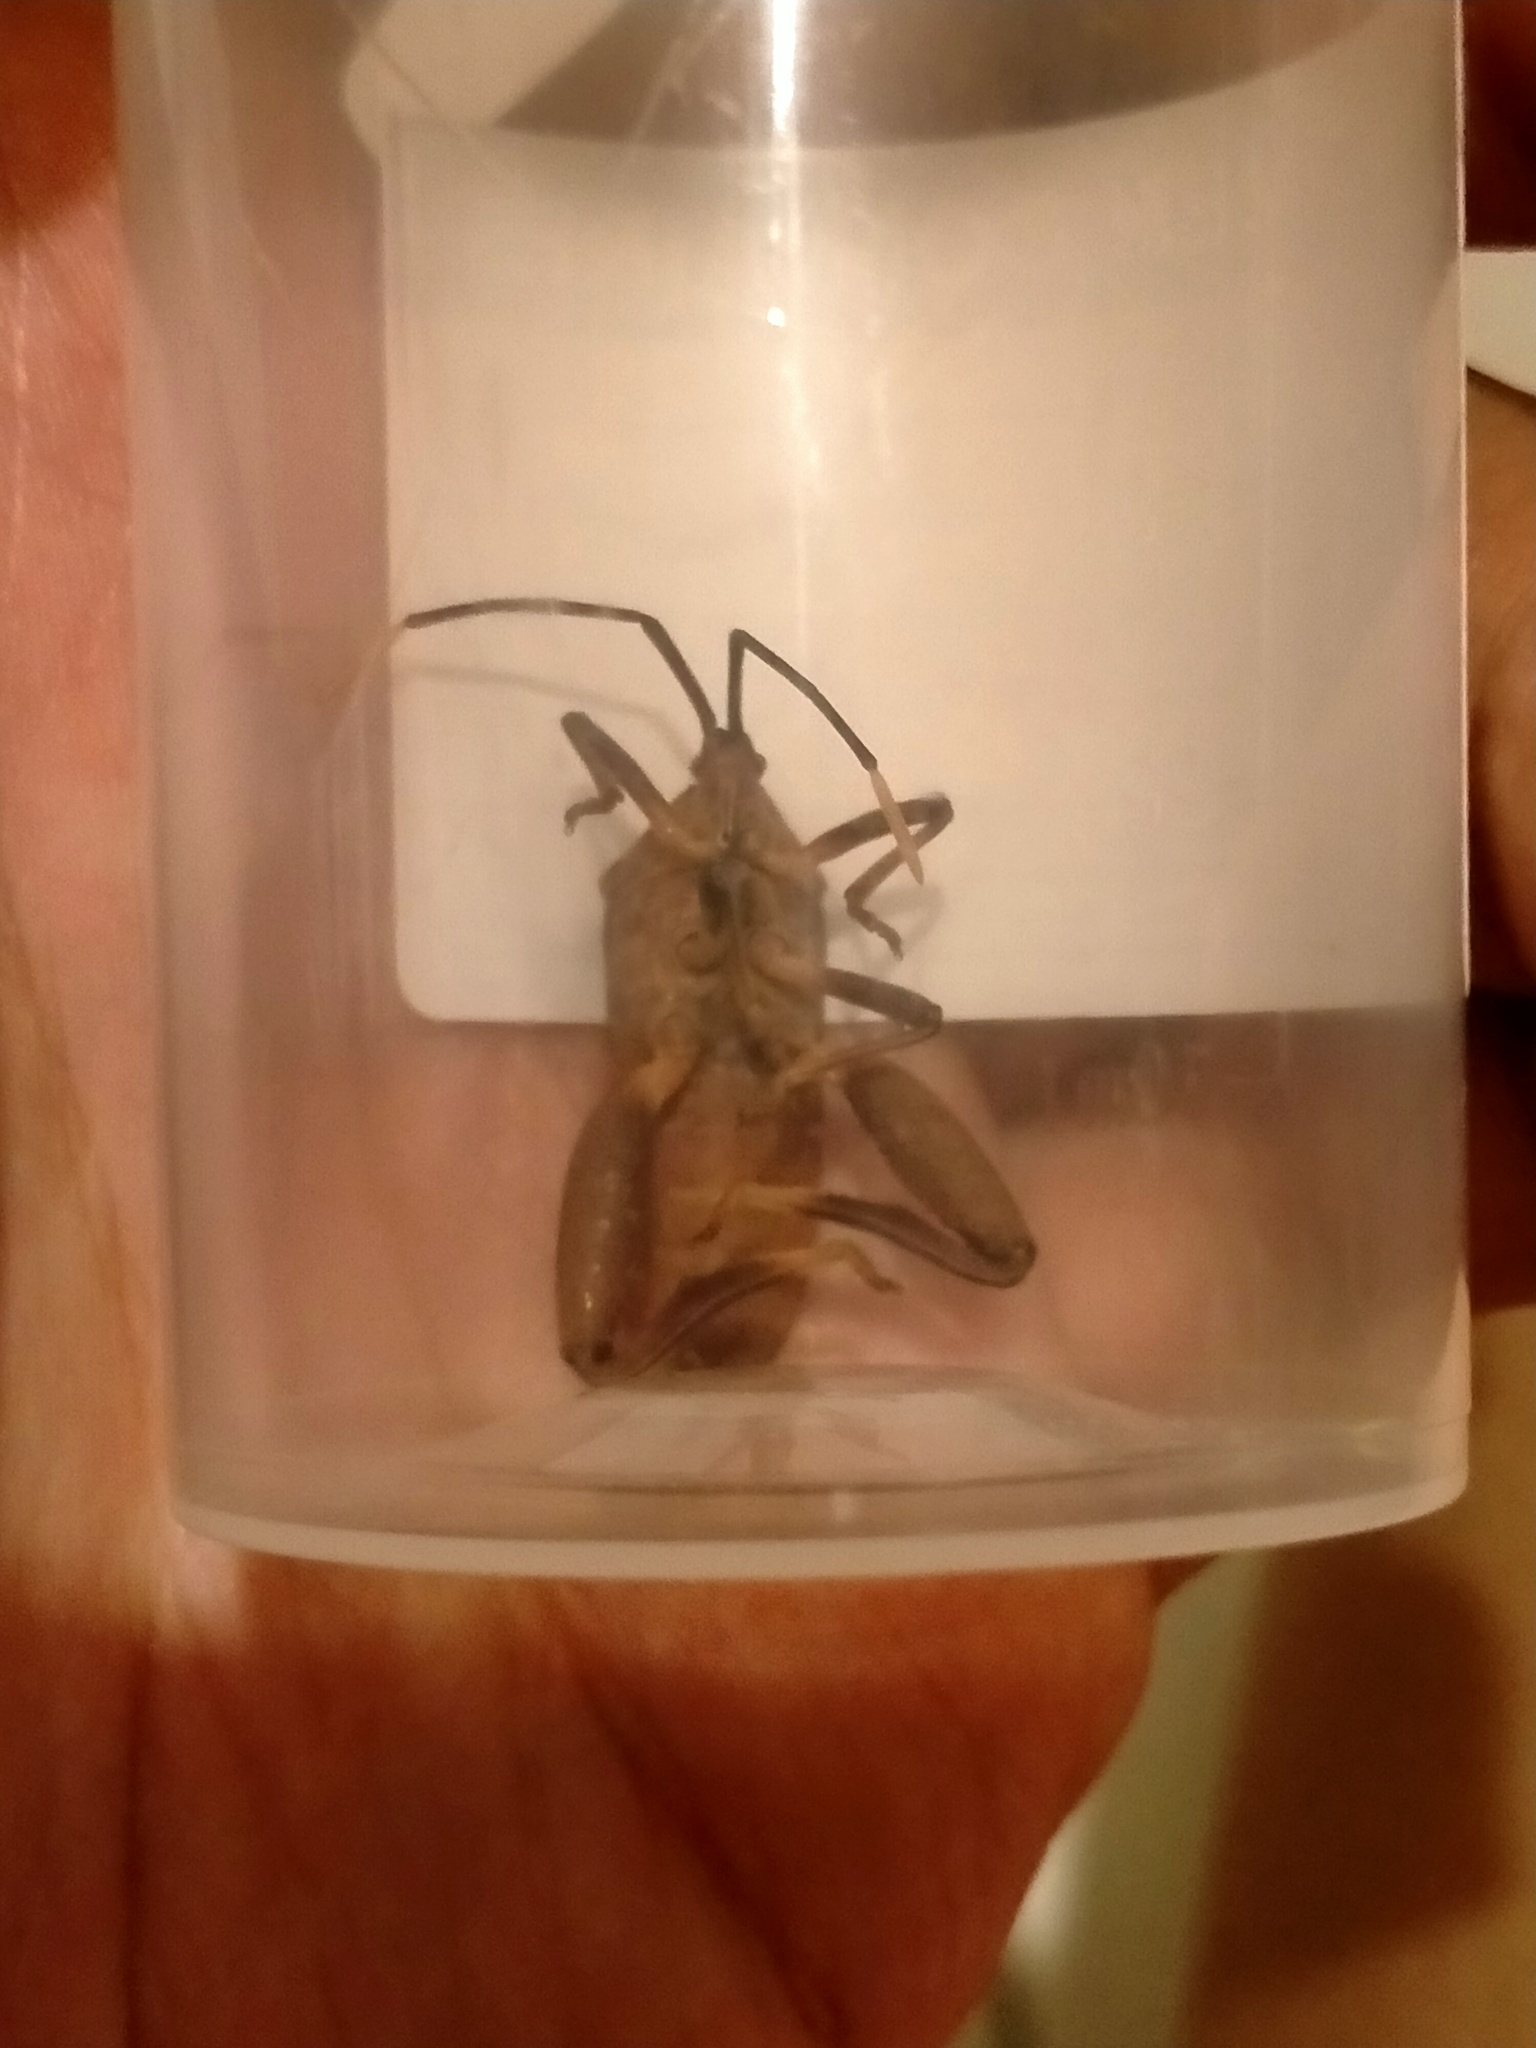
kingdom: Animalia
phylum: Arthropoda
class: Insecta
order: Hemiptera
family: Coreidae
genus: Amorbus
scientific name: Amorbus atomarius
